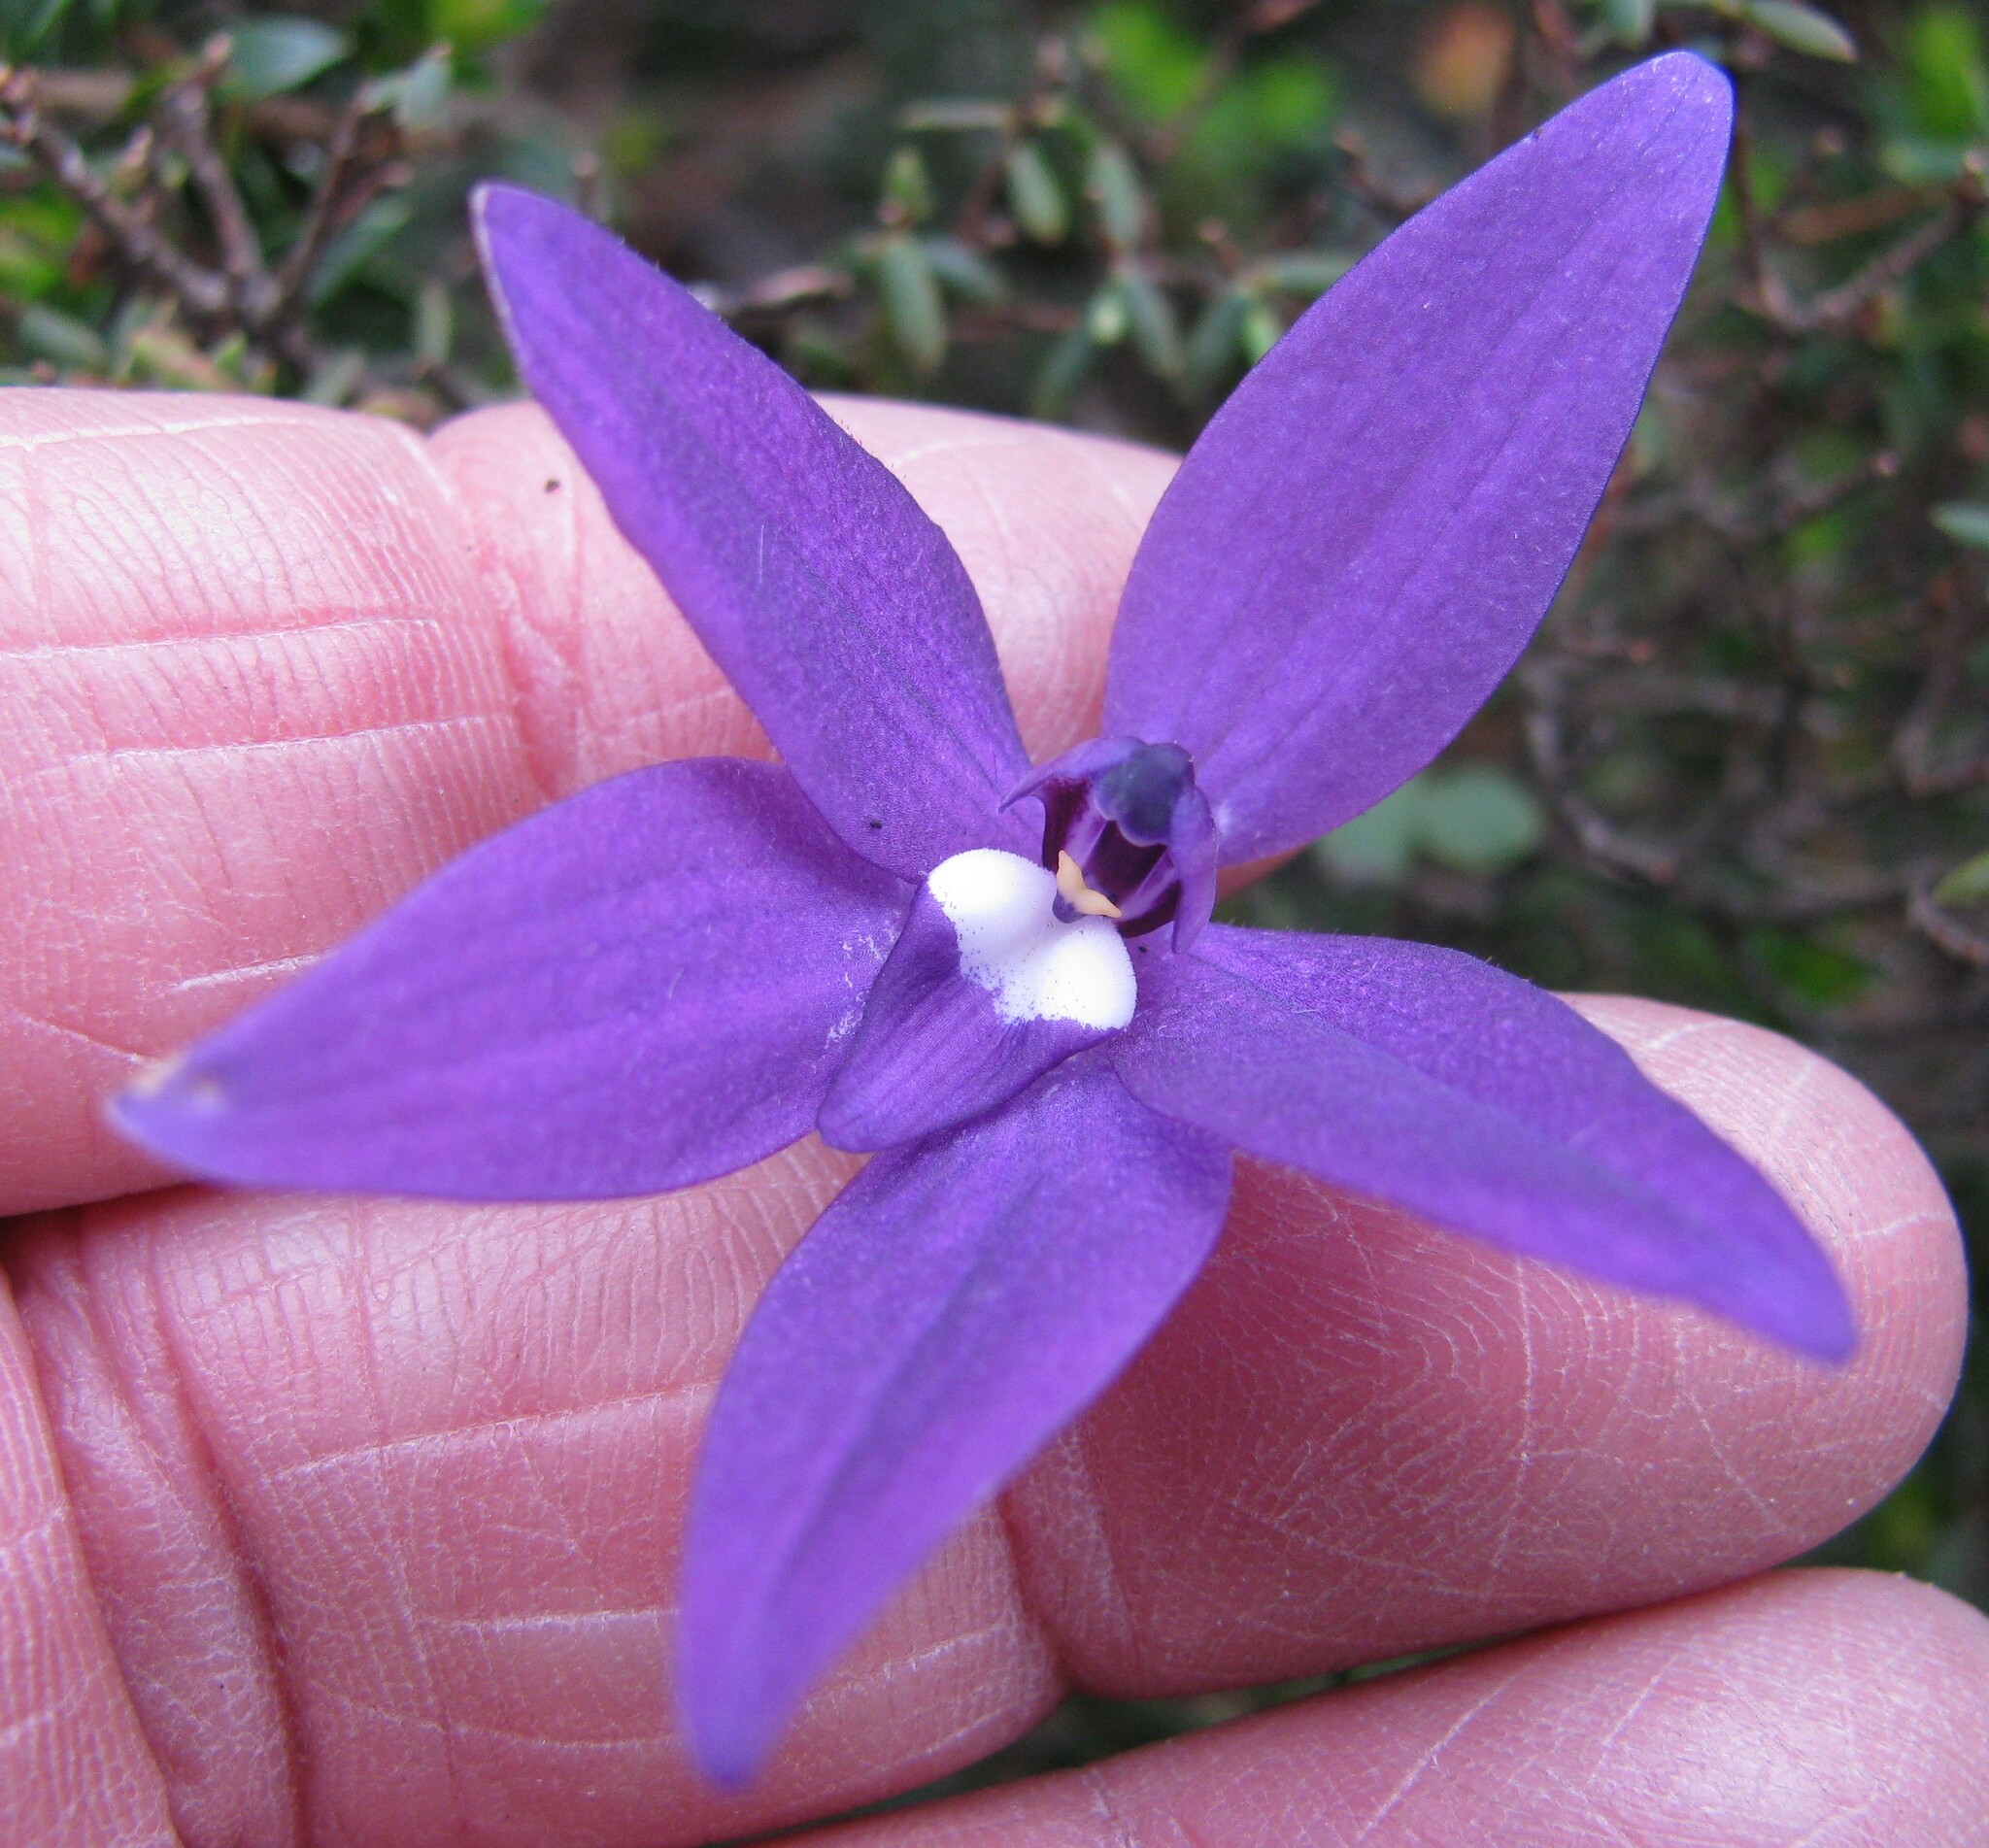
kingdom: Plantae
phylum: Tracheophyta
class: Liliopsida
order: Asparagales
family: Orchidaceae
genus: Caladenia
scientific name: Caladenia major
